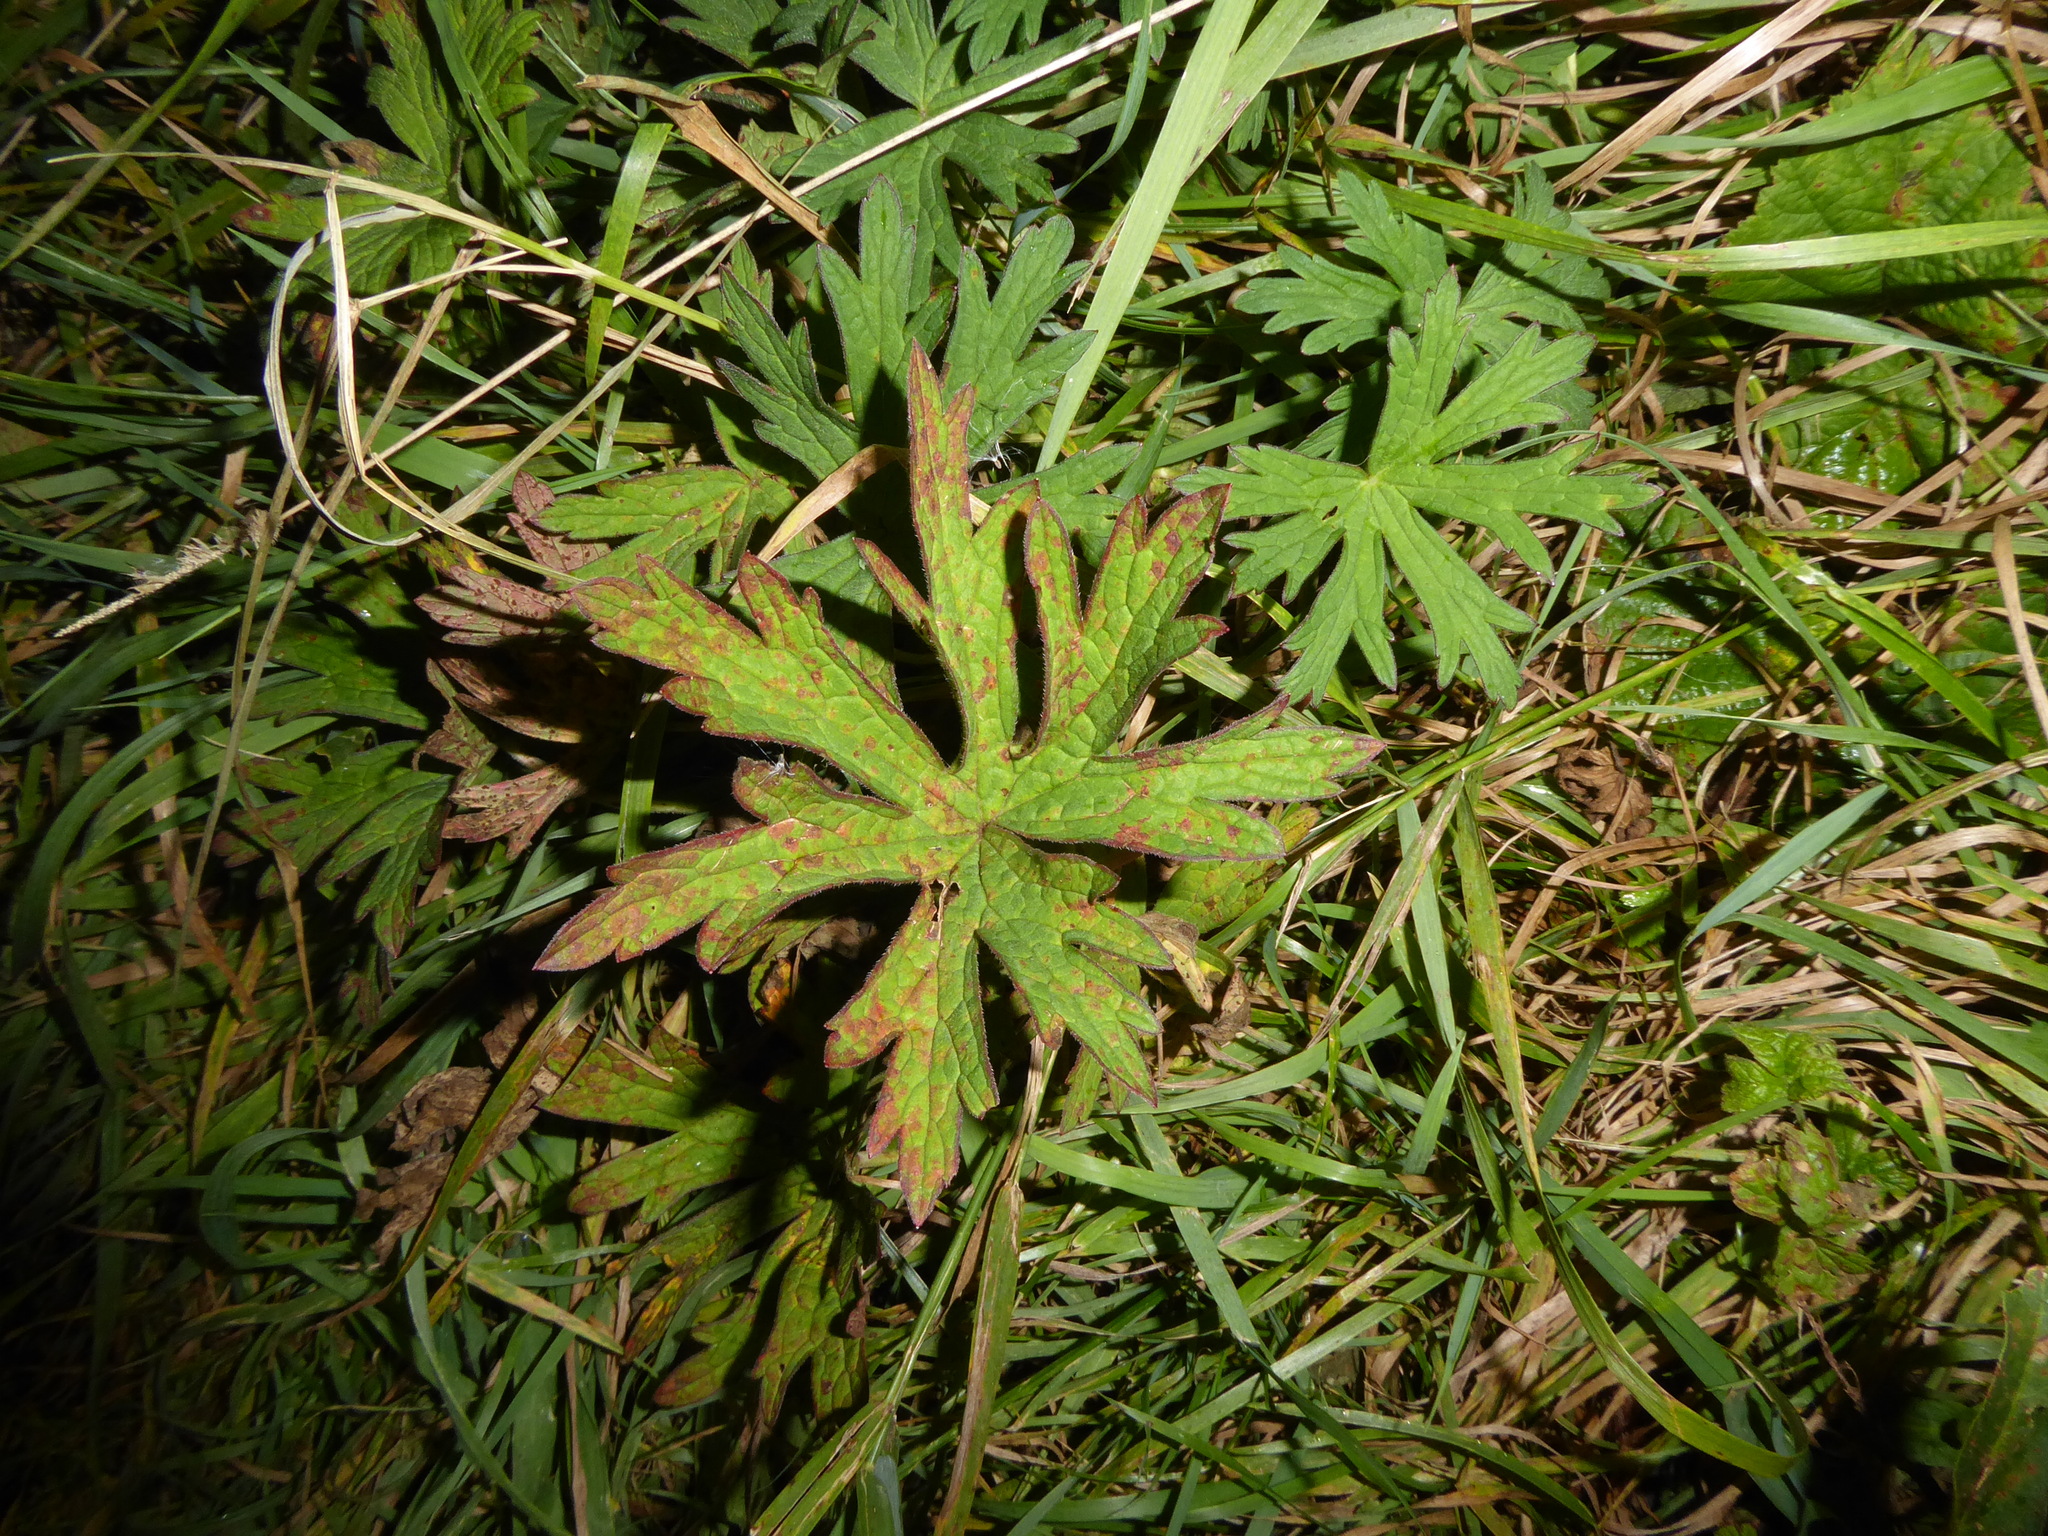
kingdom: Fungi
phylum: Basidiomycota
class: Pucciniomycetes
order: Pucciniales
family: Pucciniaceae
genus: Uromyces
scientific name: Uromyces geranii
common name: Geranium rust
